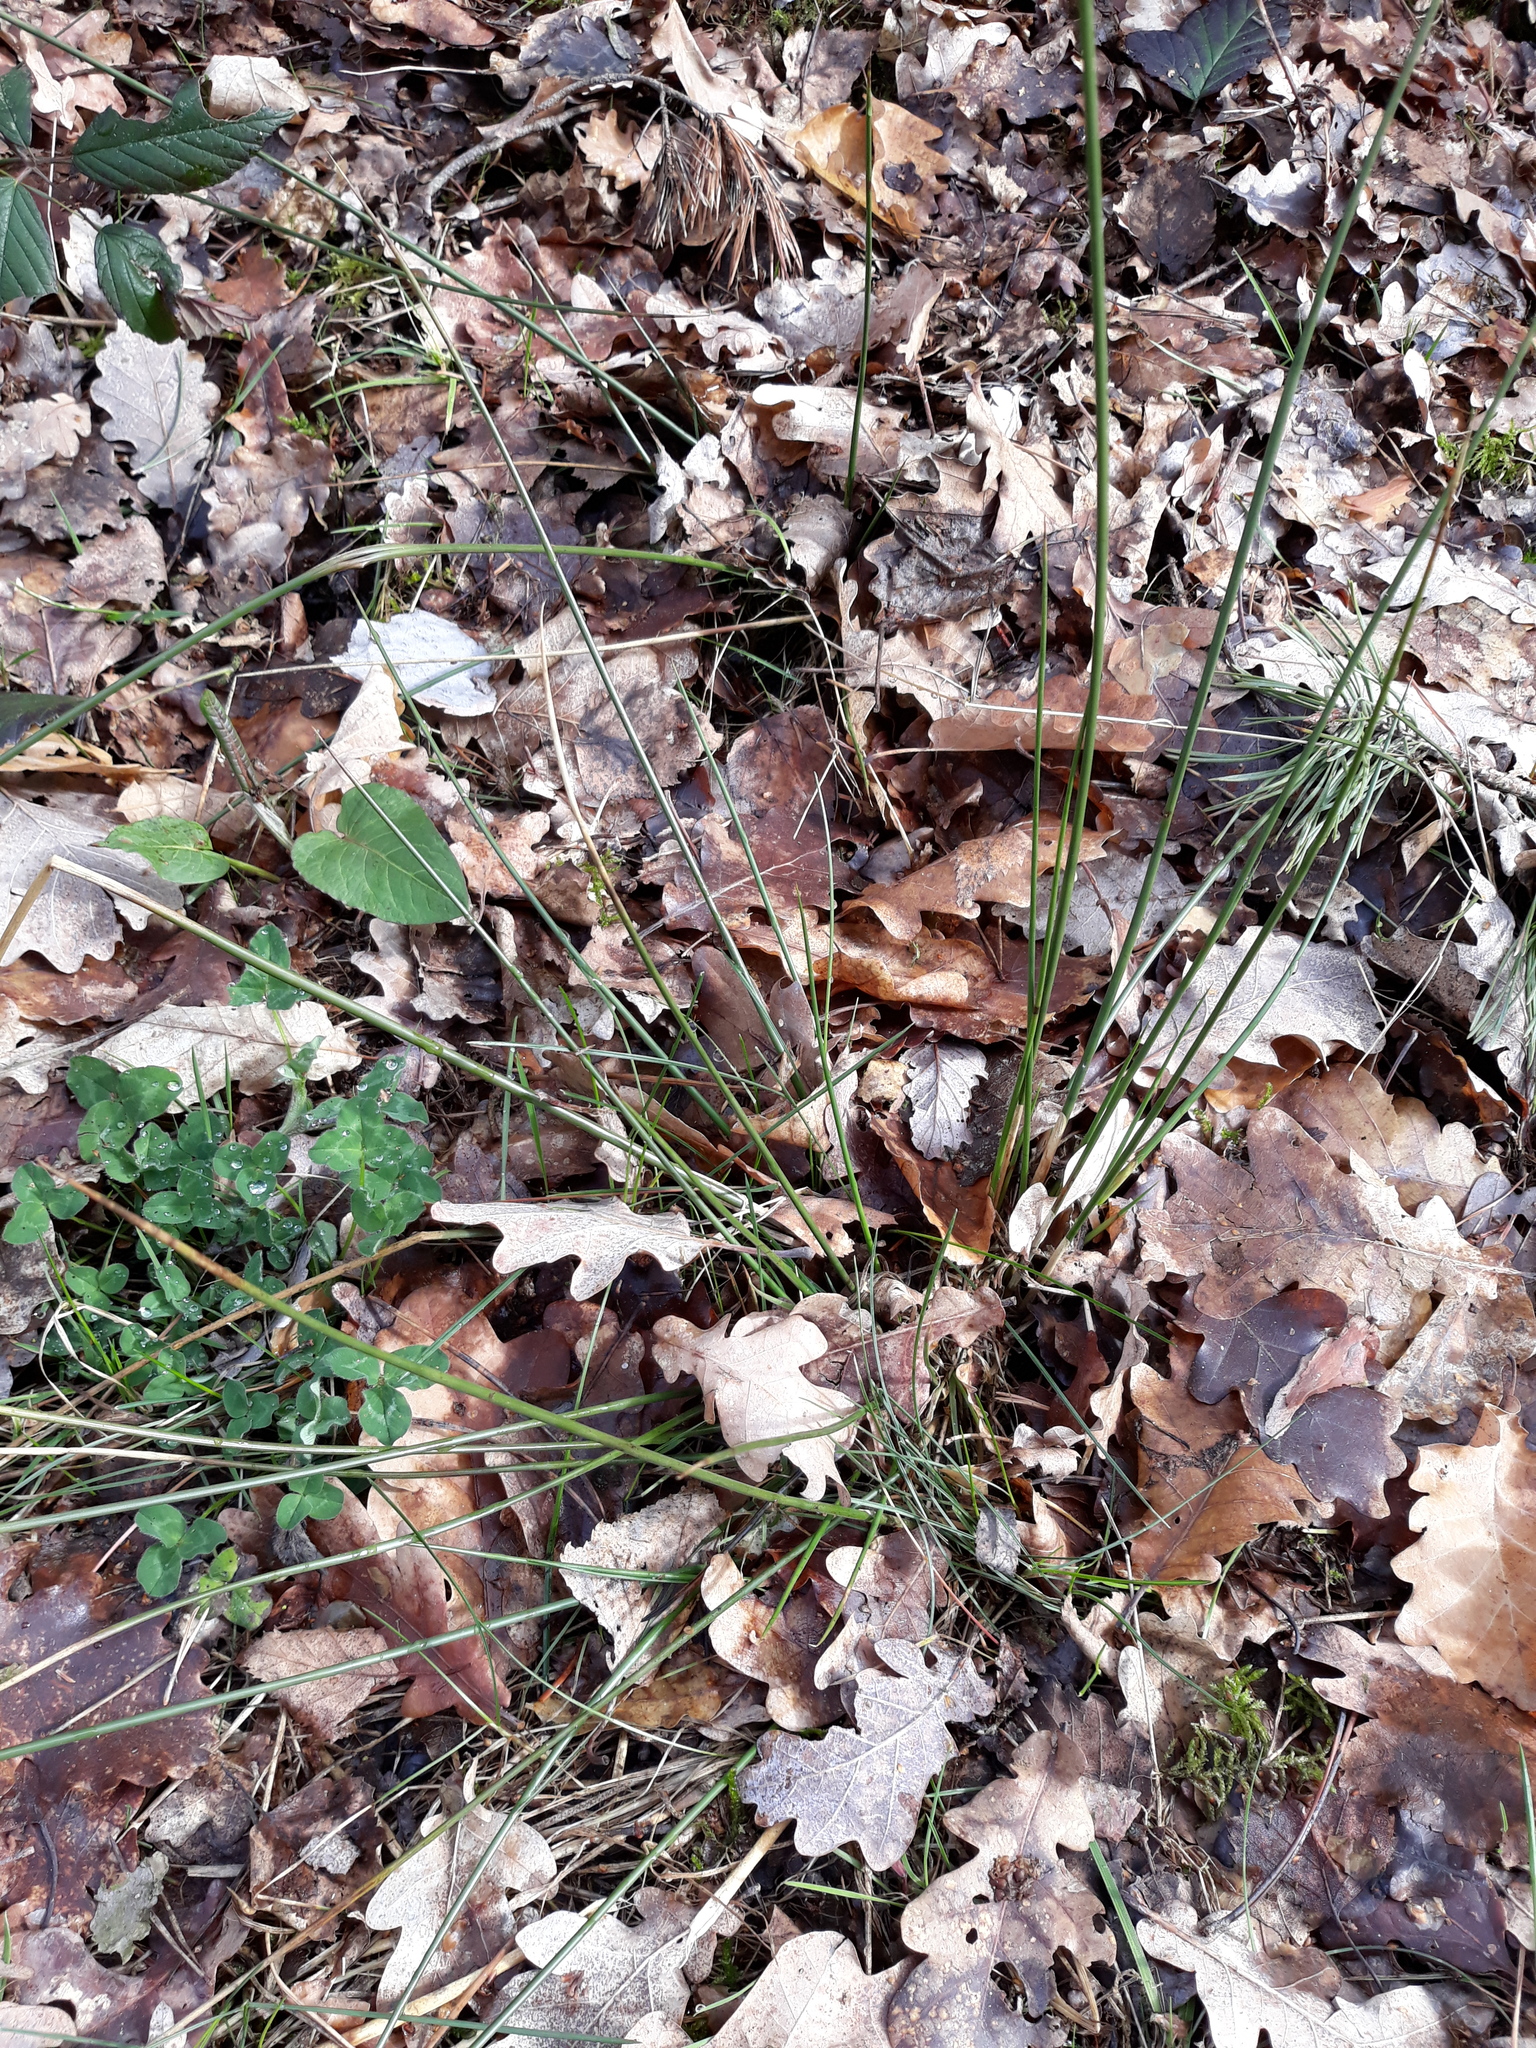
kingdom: Plantae
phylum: Tracheophyta
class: Liliopsida
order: Poales
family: Juncaceae
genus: Juncus
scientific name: Juncus effusus
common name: Soft rush
